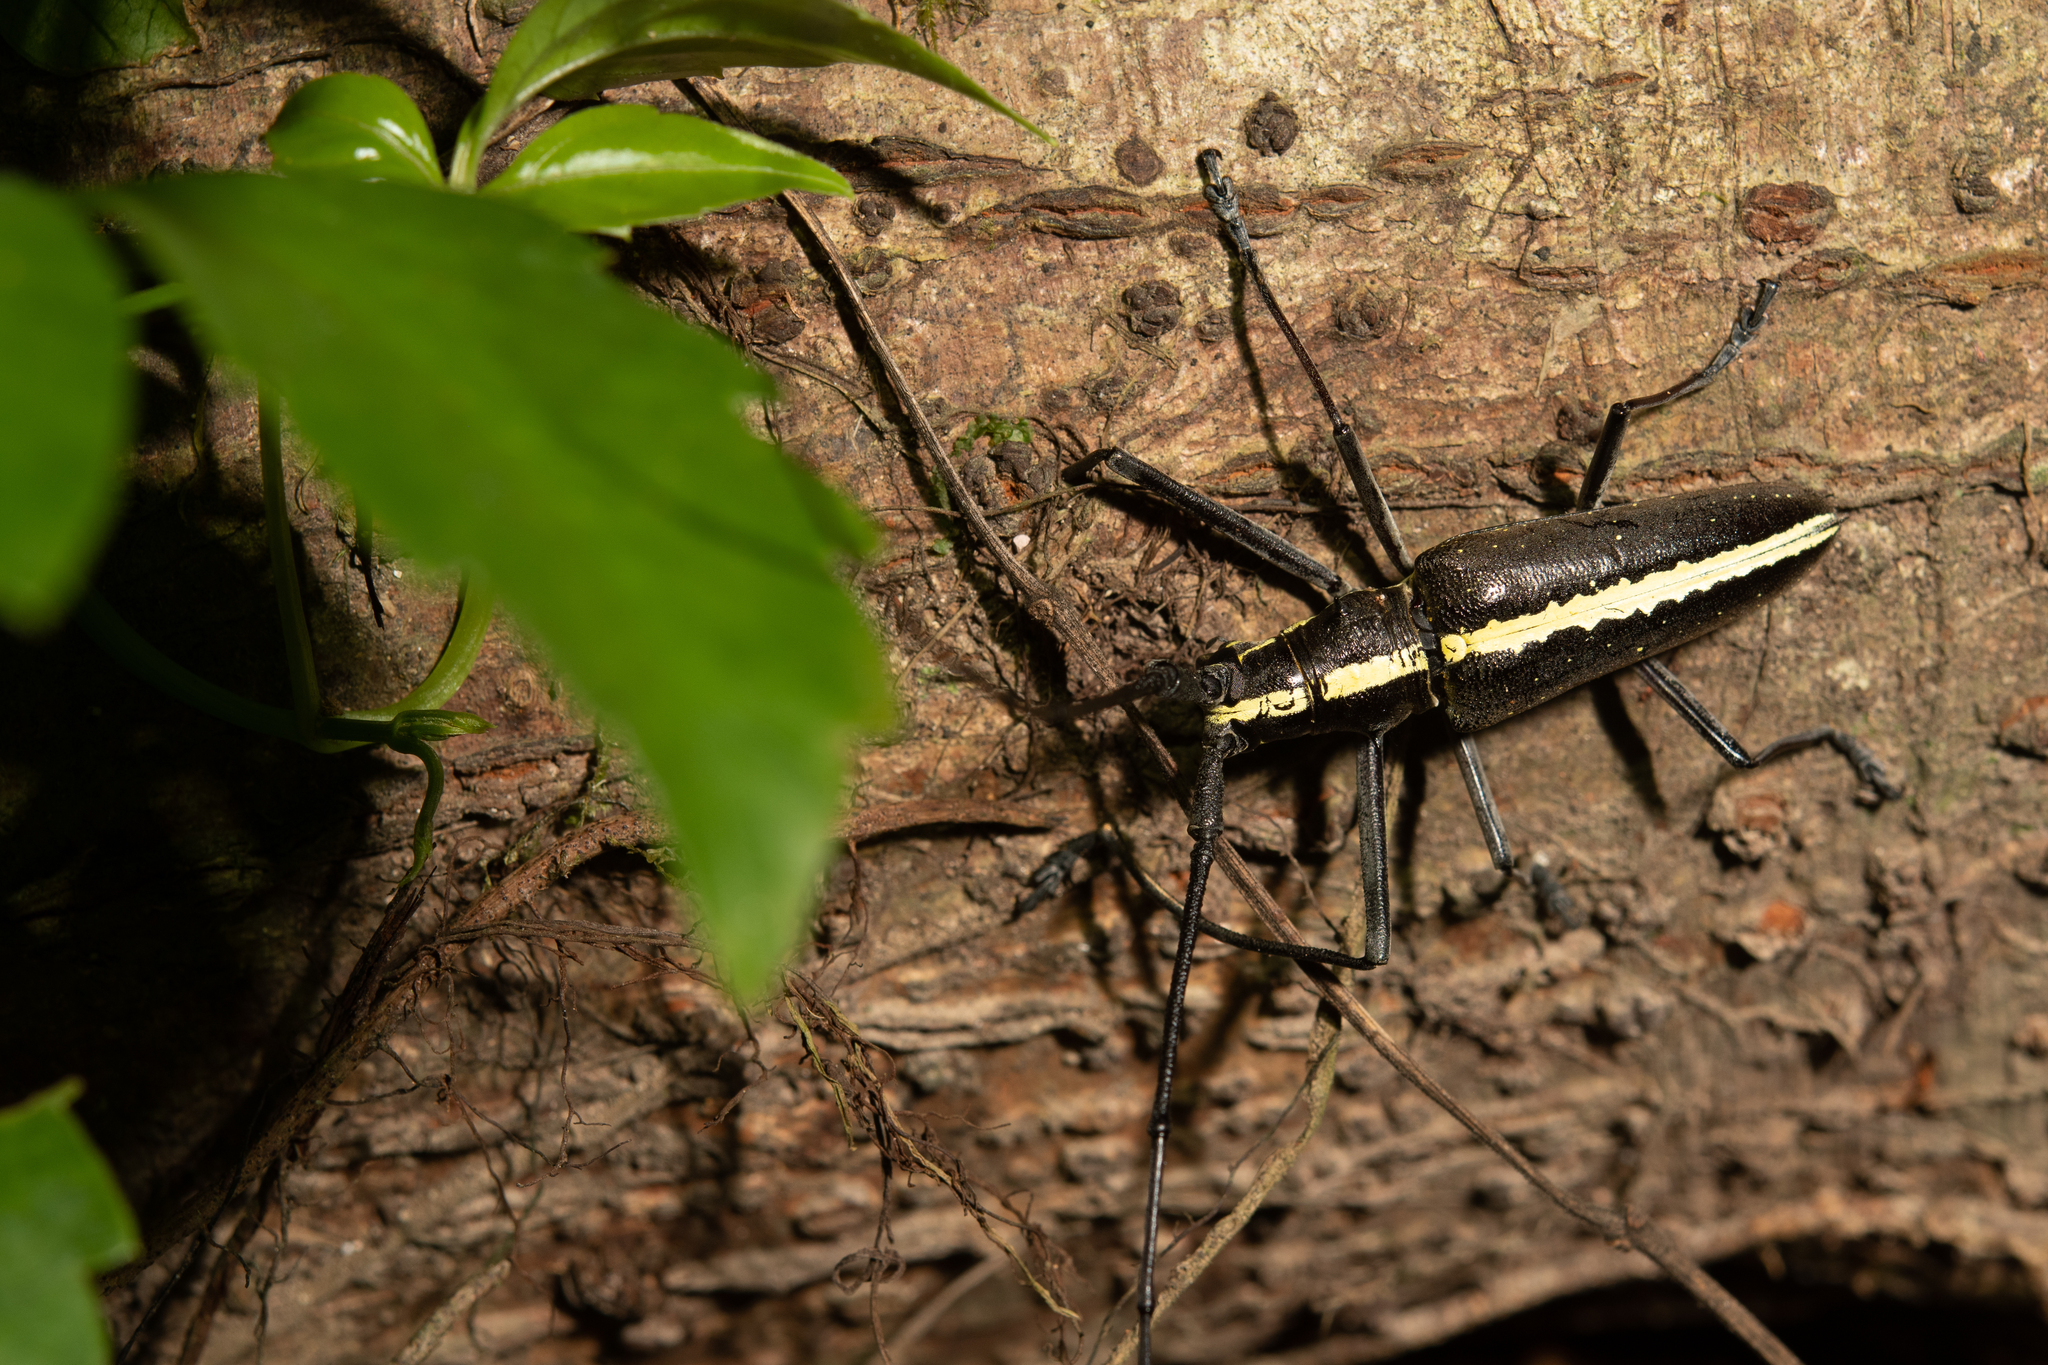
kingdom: Animalia
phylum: Arthropoda
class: Insecta
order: Coleoptera
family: Cerambycidae
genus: Taeniotes
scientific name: Taeniotes scalatus
